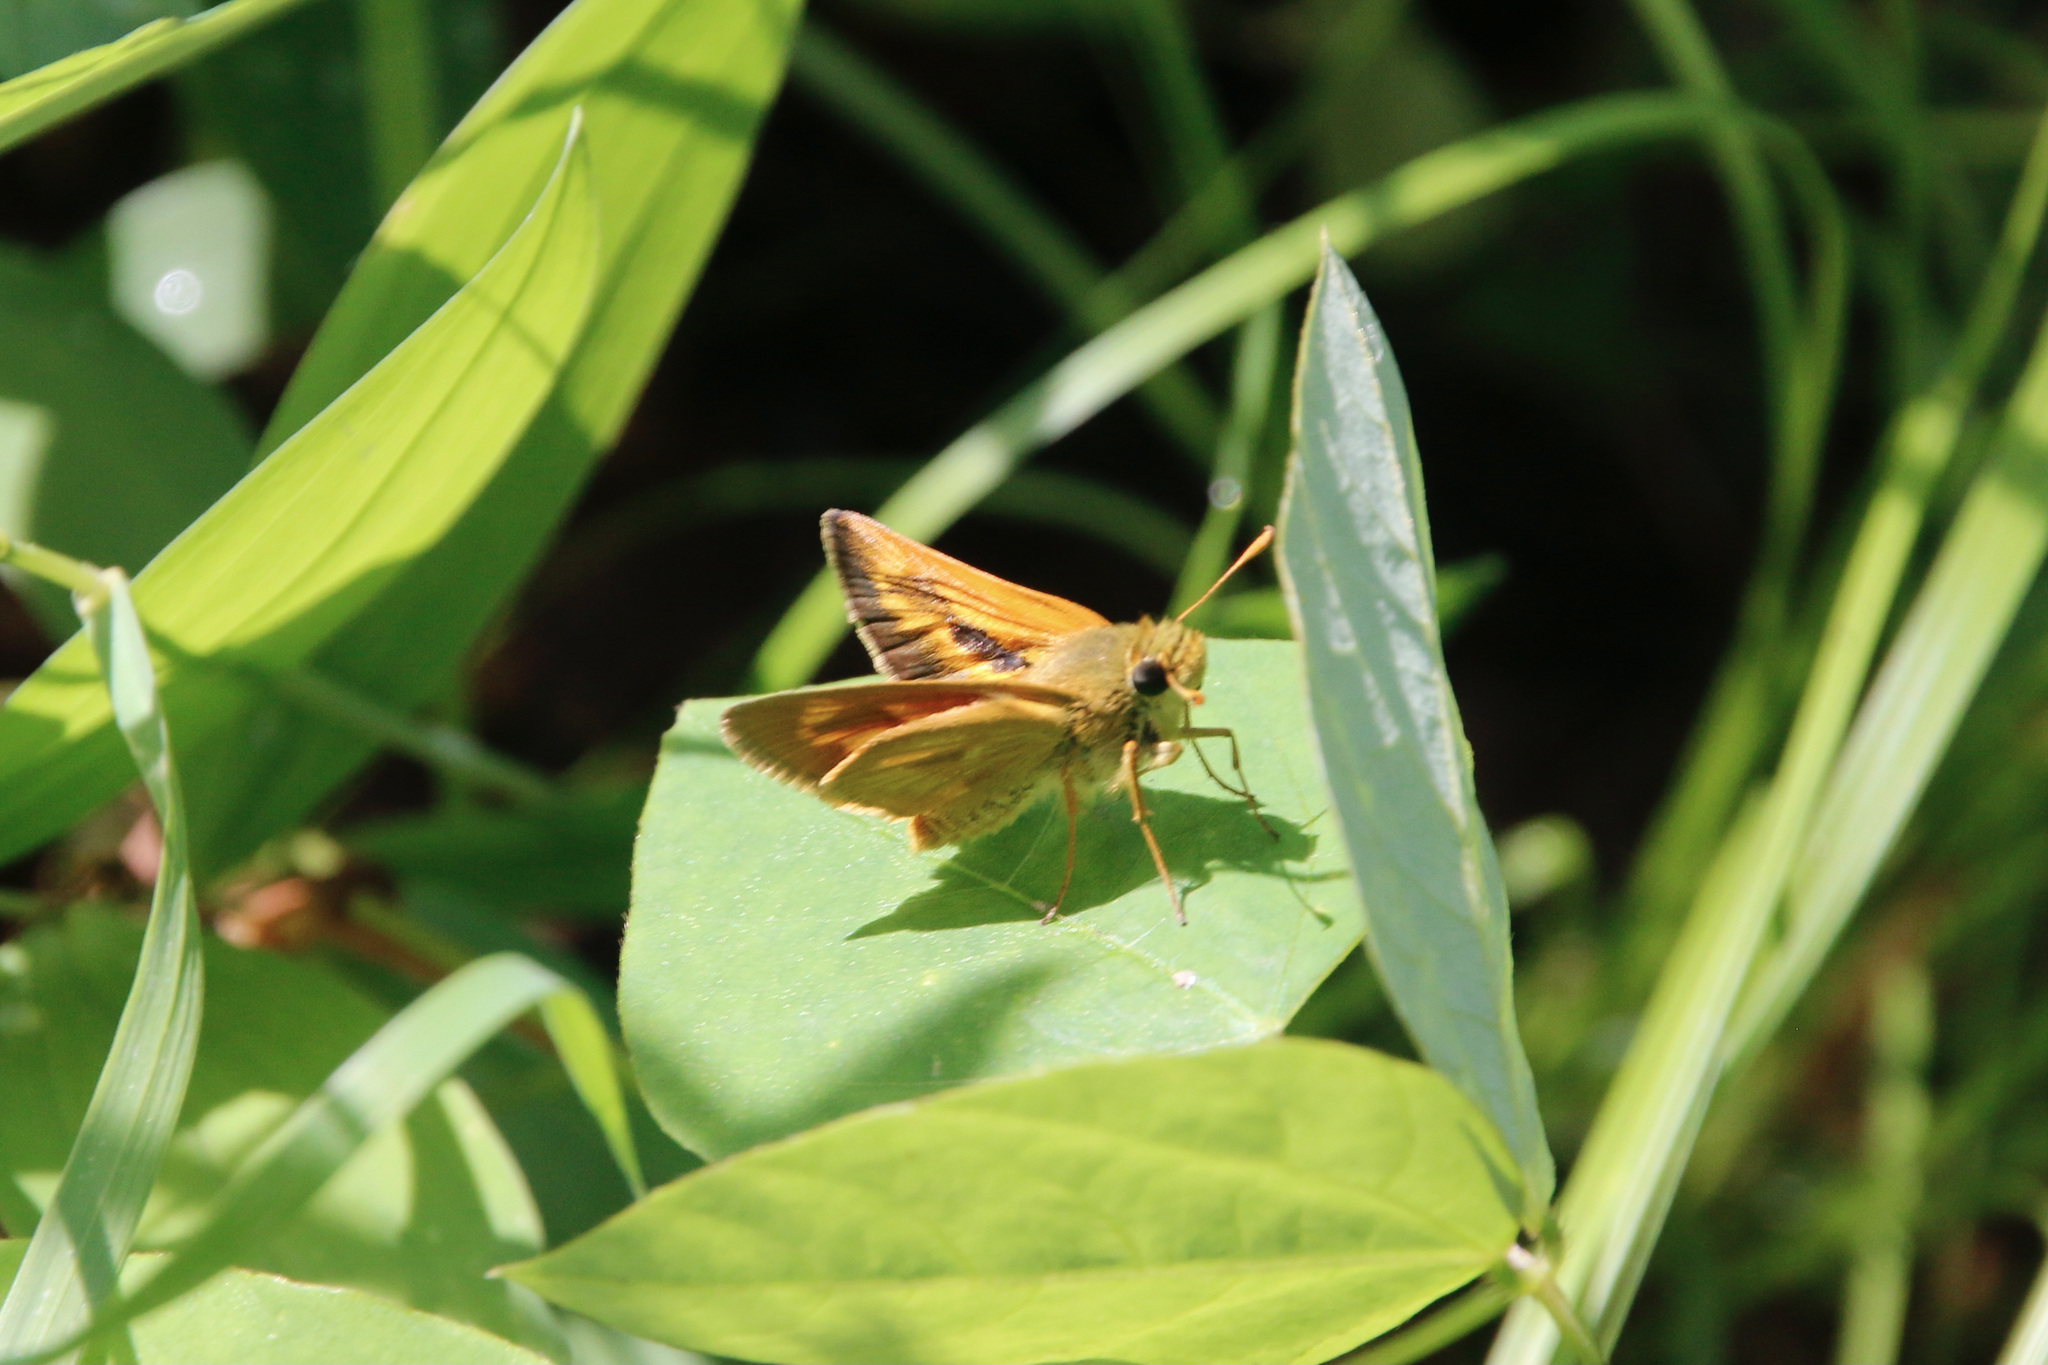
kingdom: Animalia
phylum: Arthropoda
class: Insecta
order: Lepidoptera
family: Hesperiidae
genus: Polites
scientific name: Polites mystic
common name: Long dash
